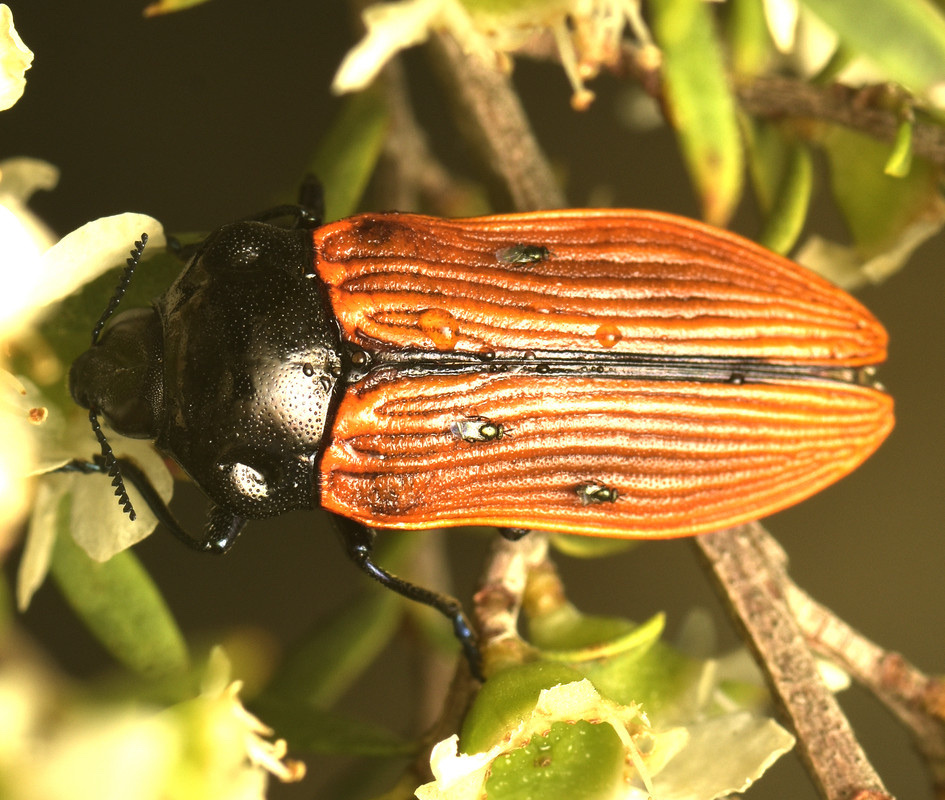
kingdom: Animalia
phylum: Arthropoda
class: Insecta
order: Coleoptera
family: Buprestidae
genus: Castiarina
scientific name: Castiarina rufipennis
